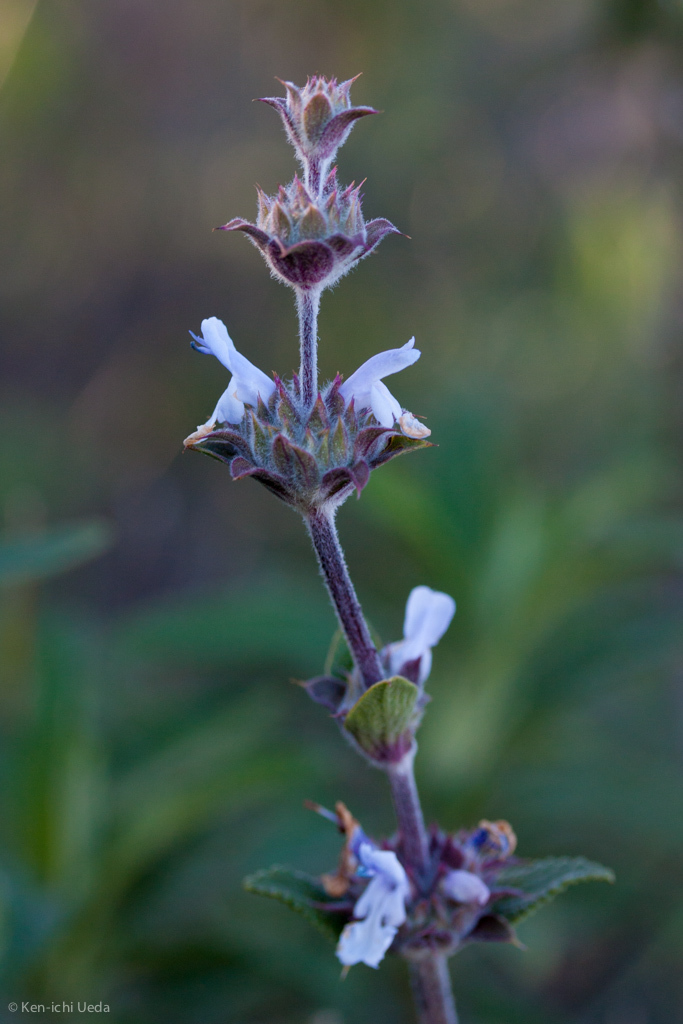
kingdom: Plantae
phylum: Tracheophyta
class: Magnoliopsida
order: Lamiales
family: Lamiaceae
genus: Salvia
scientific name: Salvia mellifera
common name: Black sage
